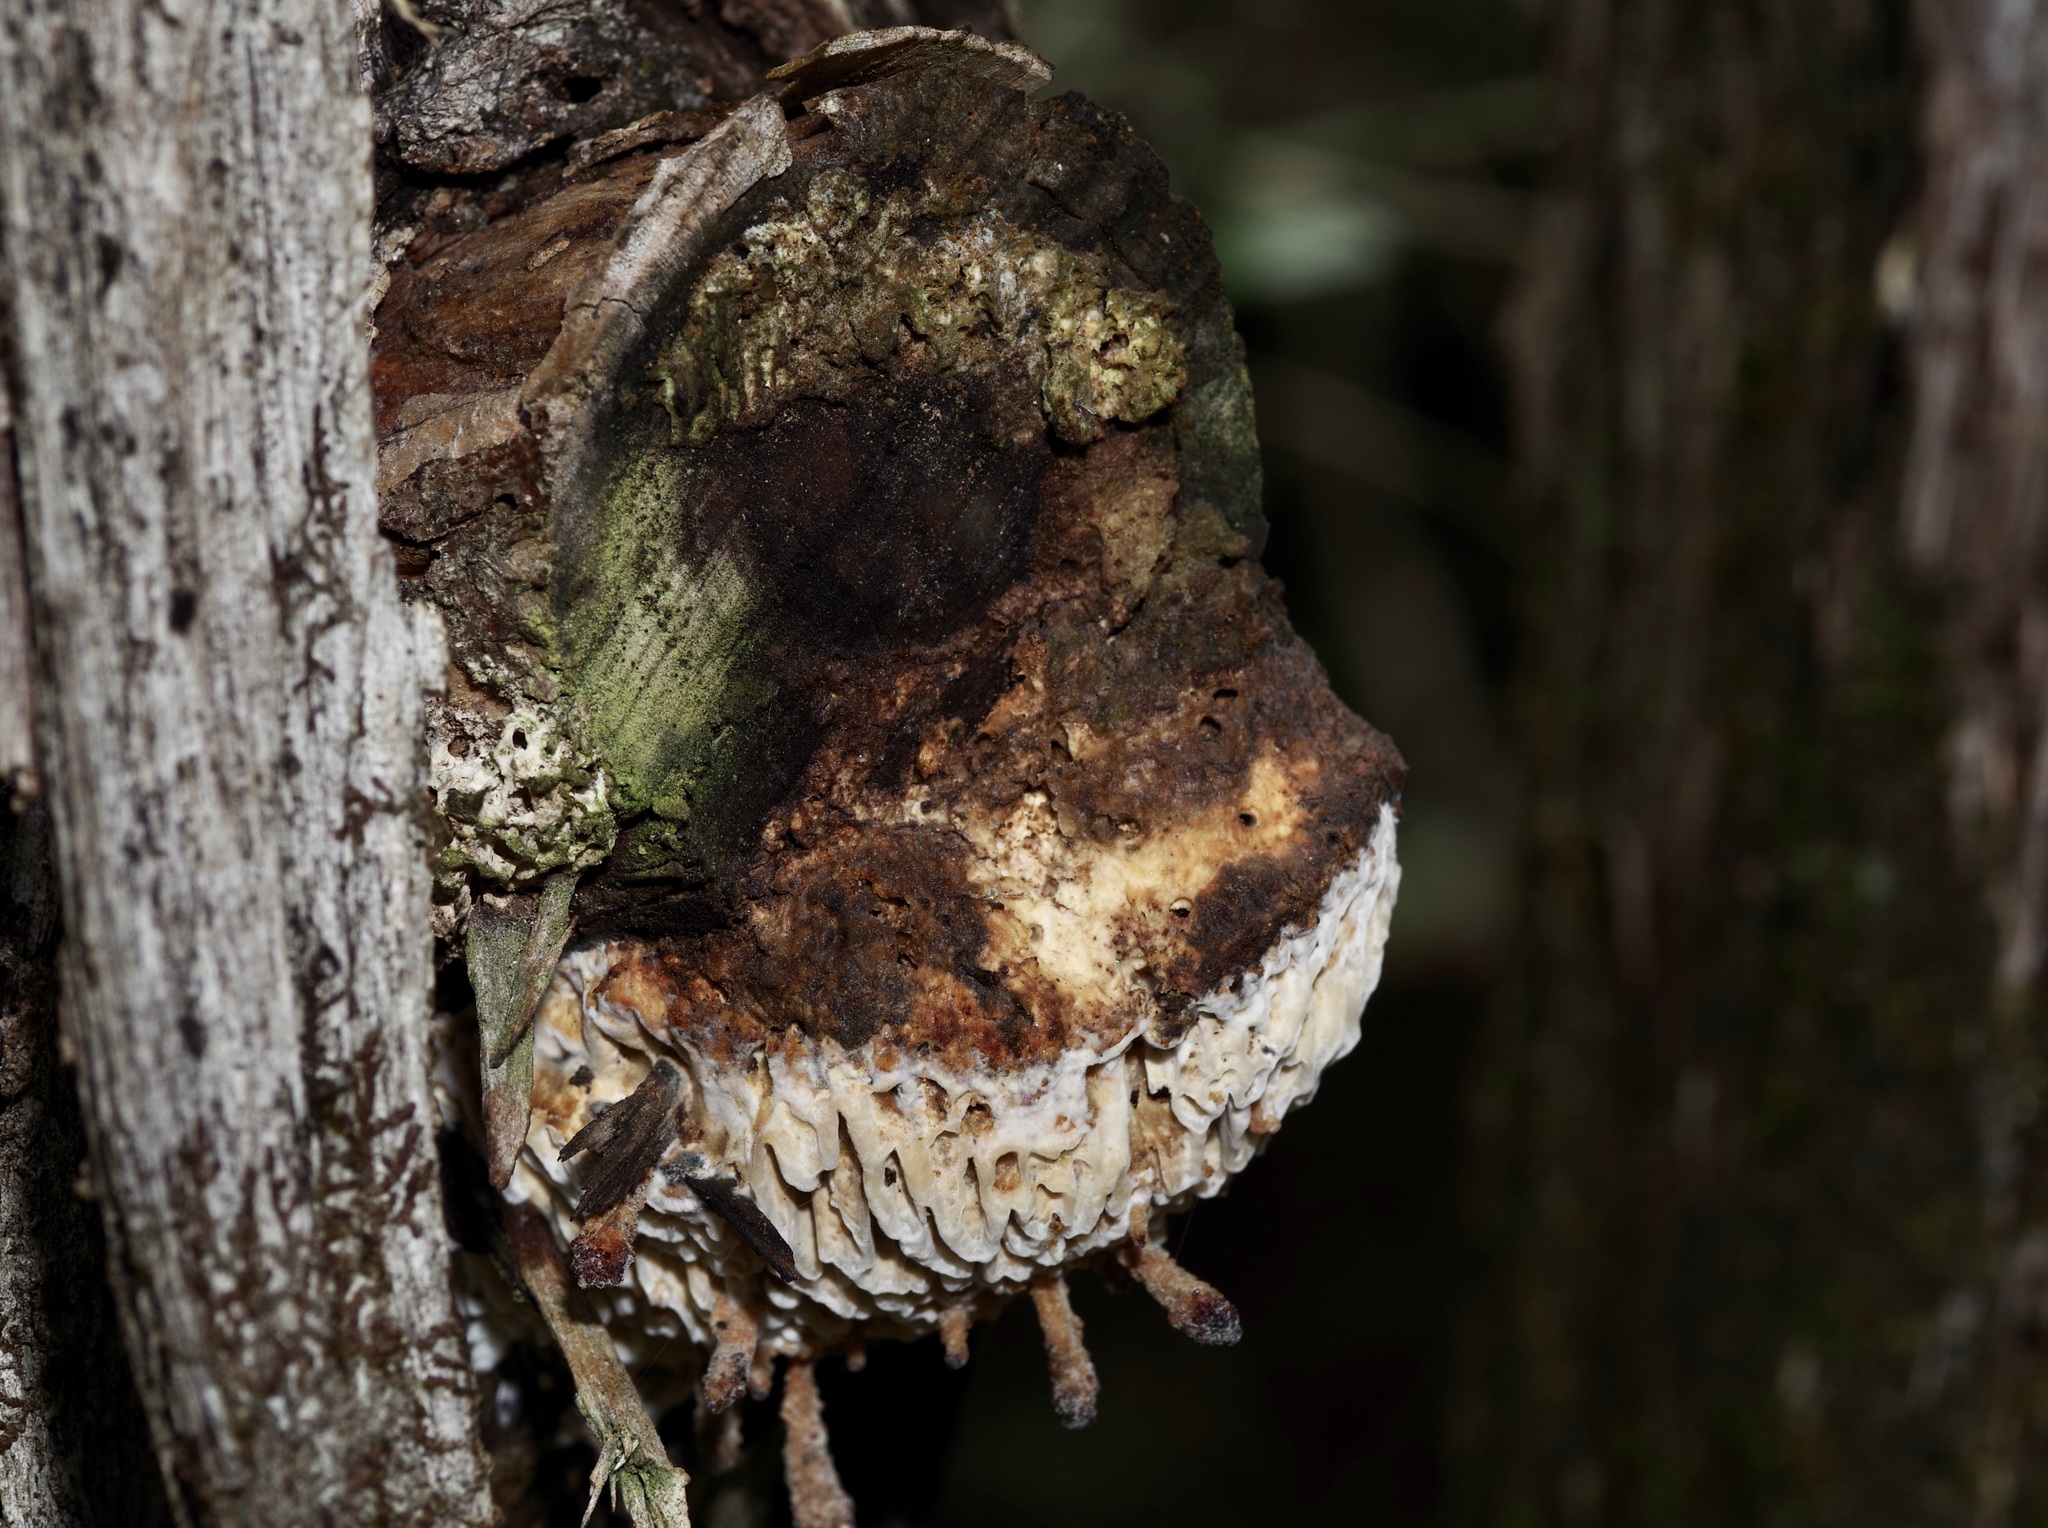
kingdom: Fungi
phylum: Basidiomycota
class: Agaricomycetes
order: Polyporales
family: Fomitopsidaceae
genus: Fomitopsis
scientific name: Fomitopsis
